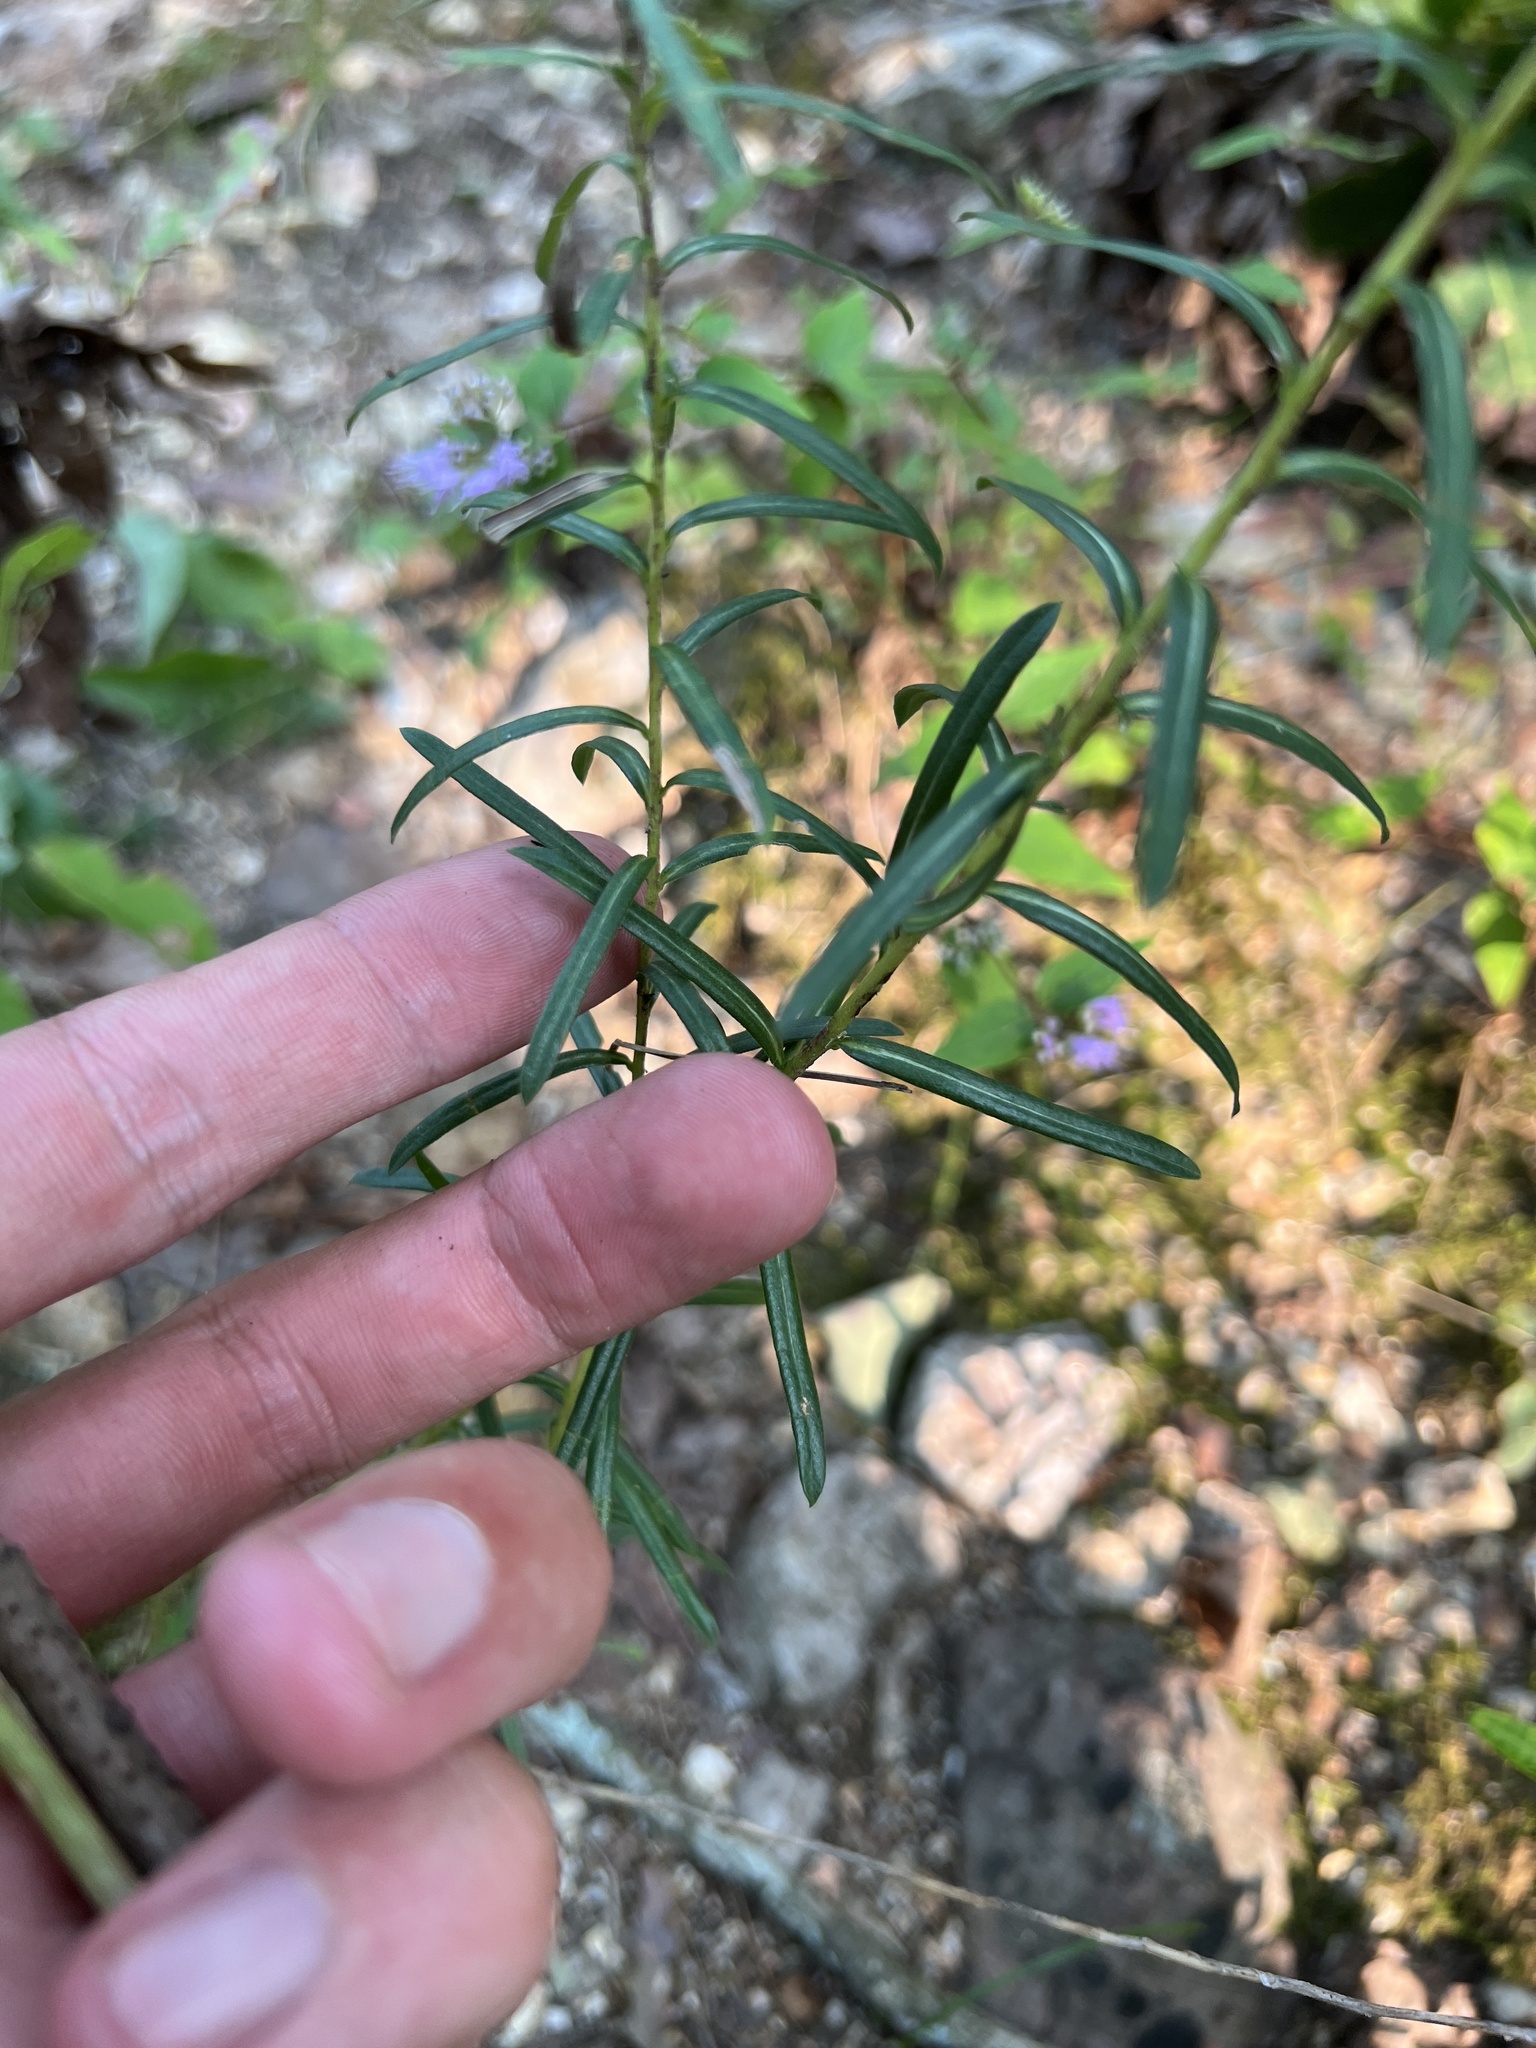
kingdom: Plantae
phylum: Tracheophyta
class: Magnoliopsida
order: Asterales
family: Asteraceae
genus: Ionactis
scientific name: Ionactis linariifolia
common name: Flax-leaf aster
